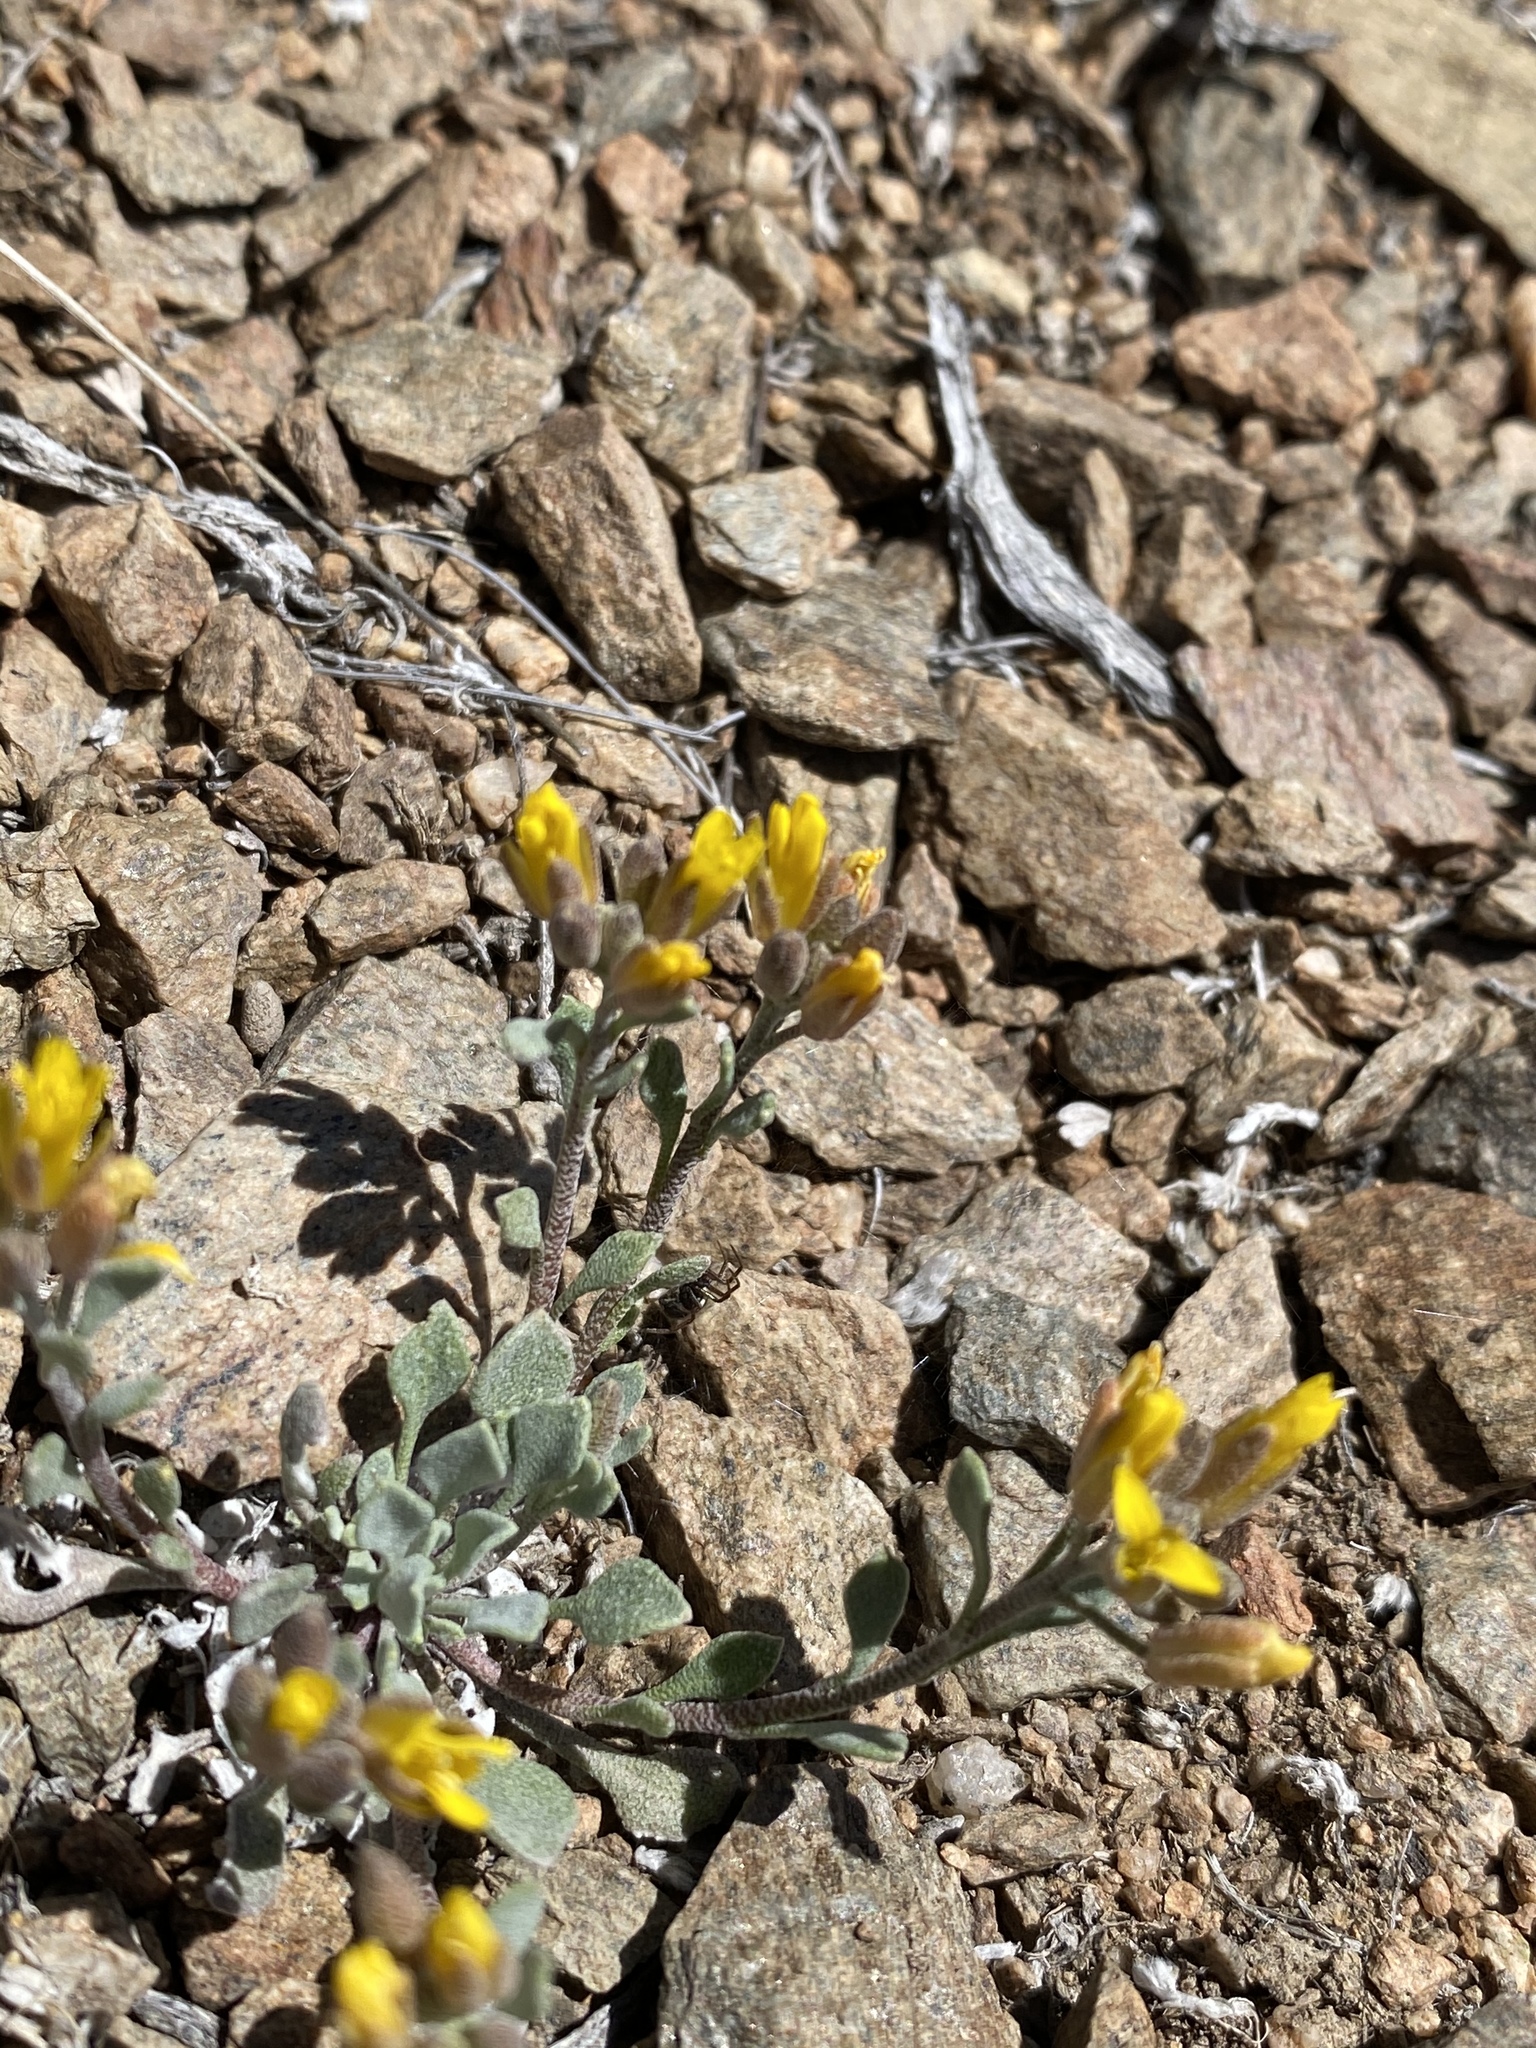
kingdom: Plantae
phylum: Tracheophyta
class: Magnoliopsida
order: Brassicales
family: Brassicaceae
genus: Physaria
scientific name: Physaria kingii
